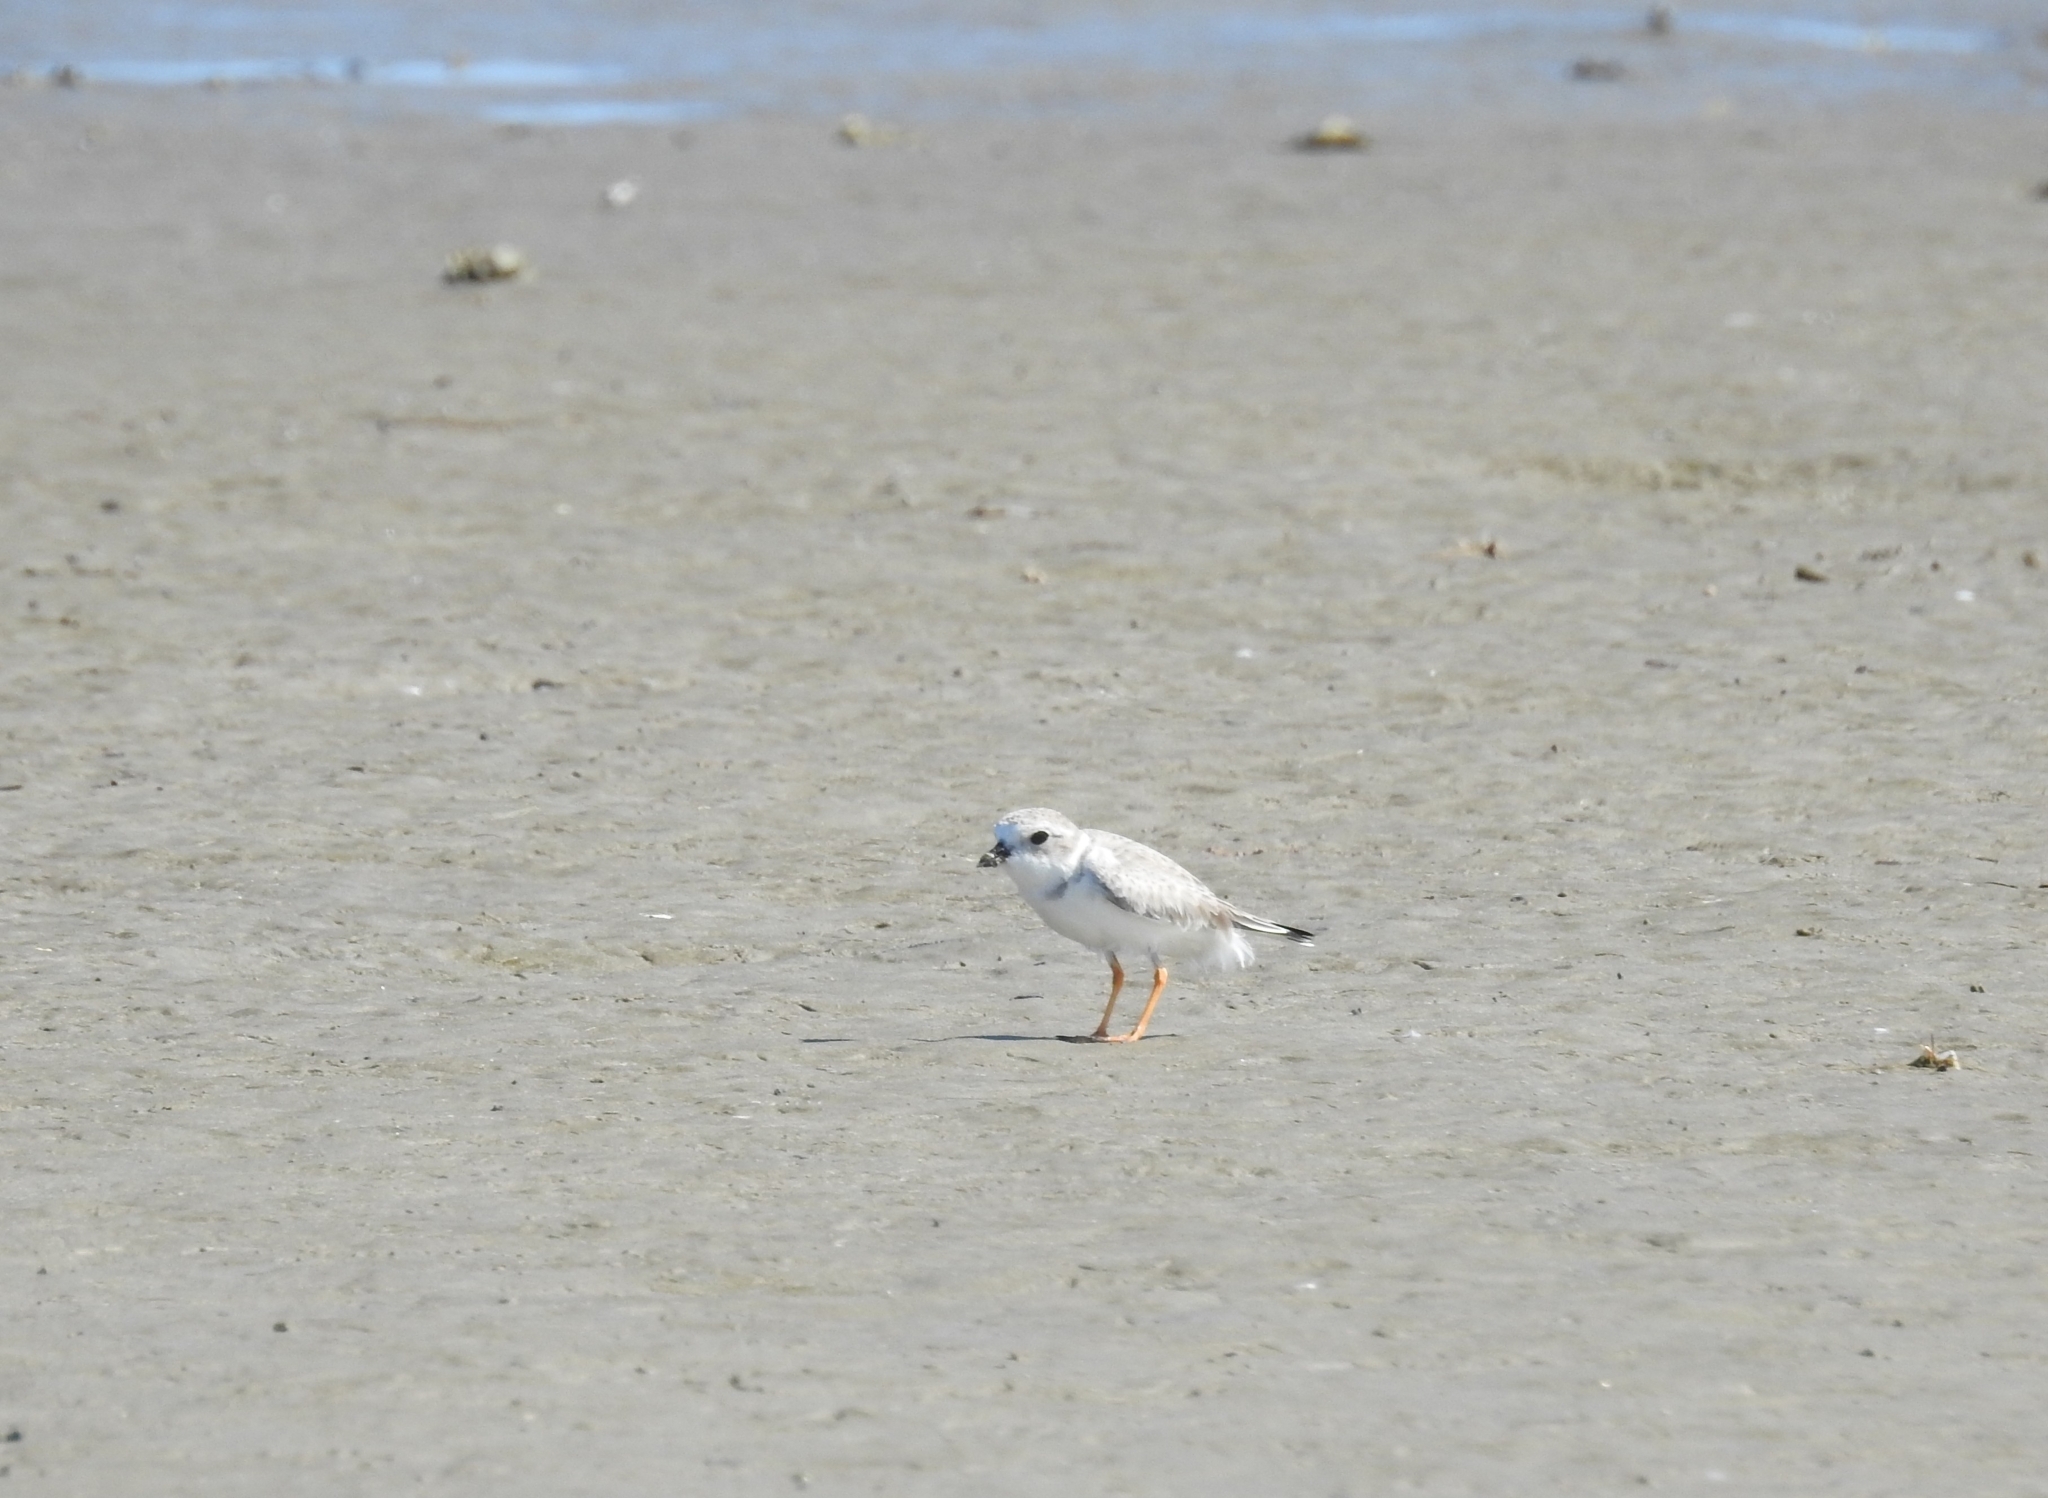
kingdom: Animalia
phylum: Chordata
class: Aves
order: Charadriiformes
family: Charadriidae
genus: Charadrius
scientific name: Charadrius melodus
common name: Piping plover
